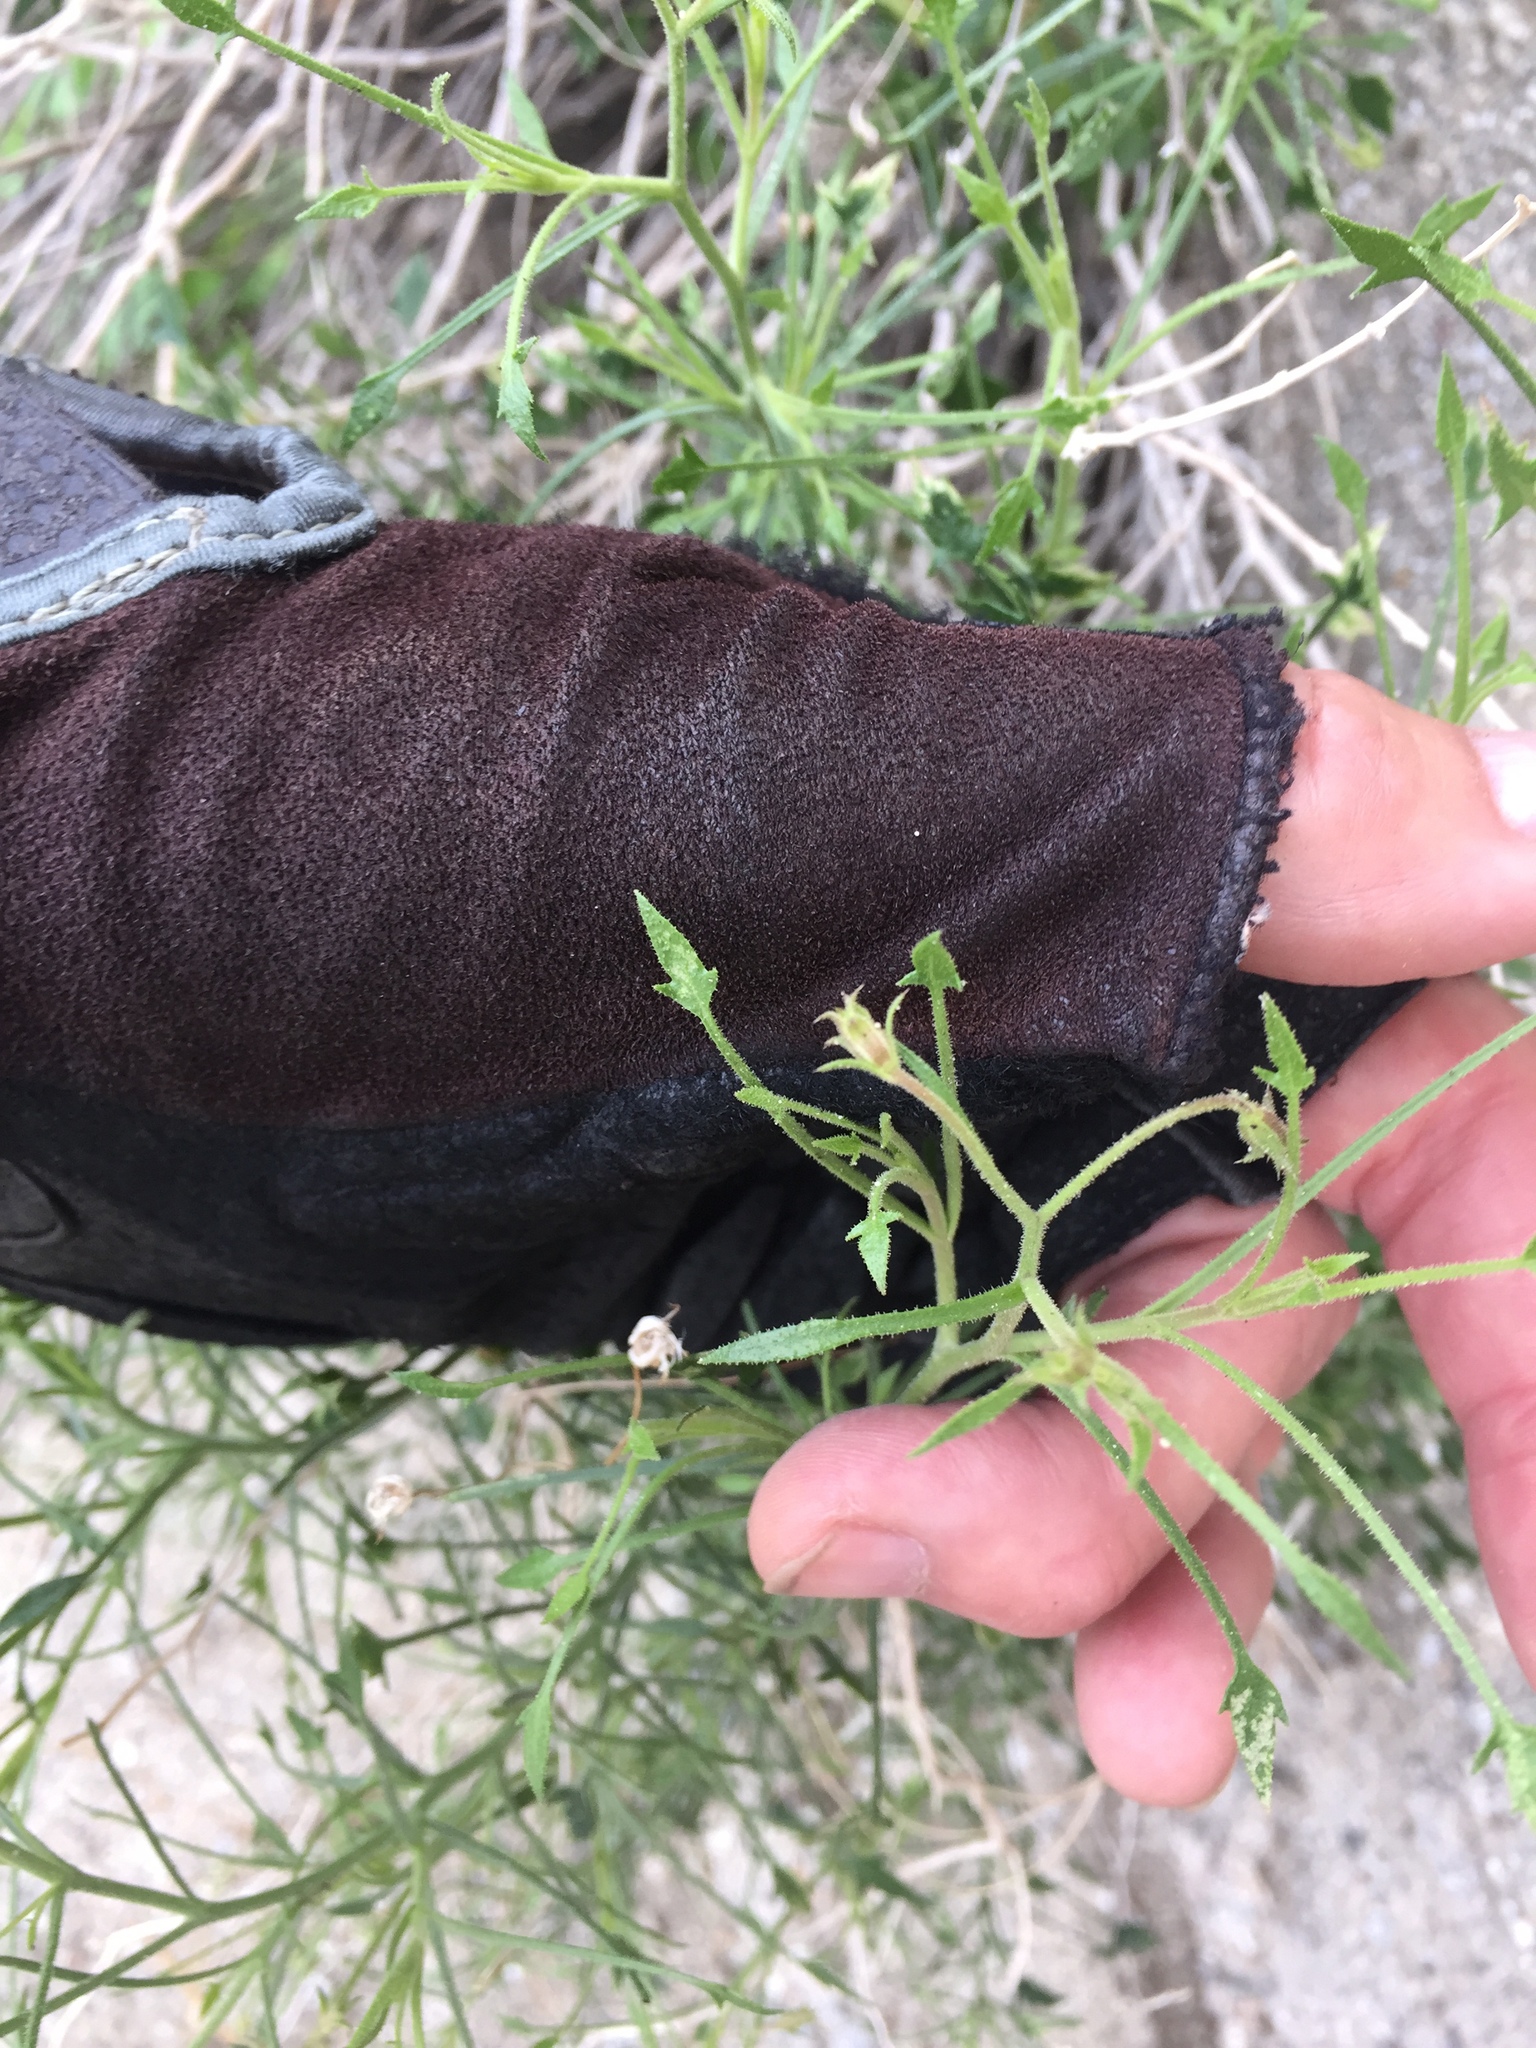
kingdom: Plantae
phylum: Tracheophyta
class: Magnoliopsida
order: Asterales
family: Asteraceae
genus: Pleurocoronis
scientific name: Pleurocoronis pluriseta
